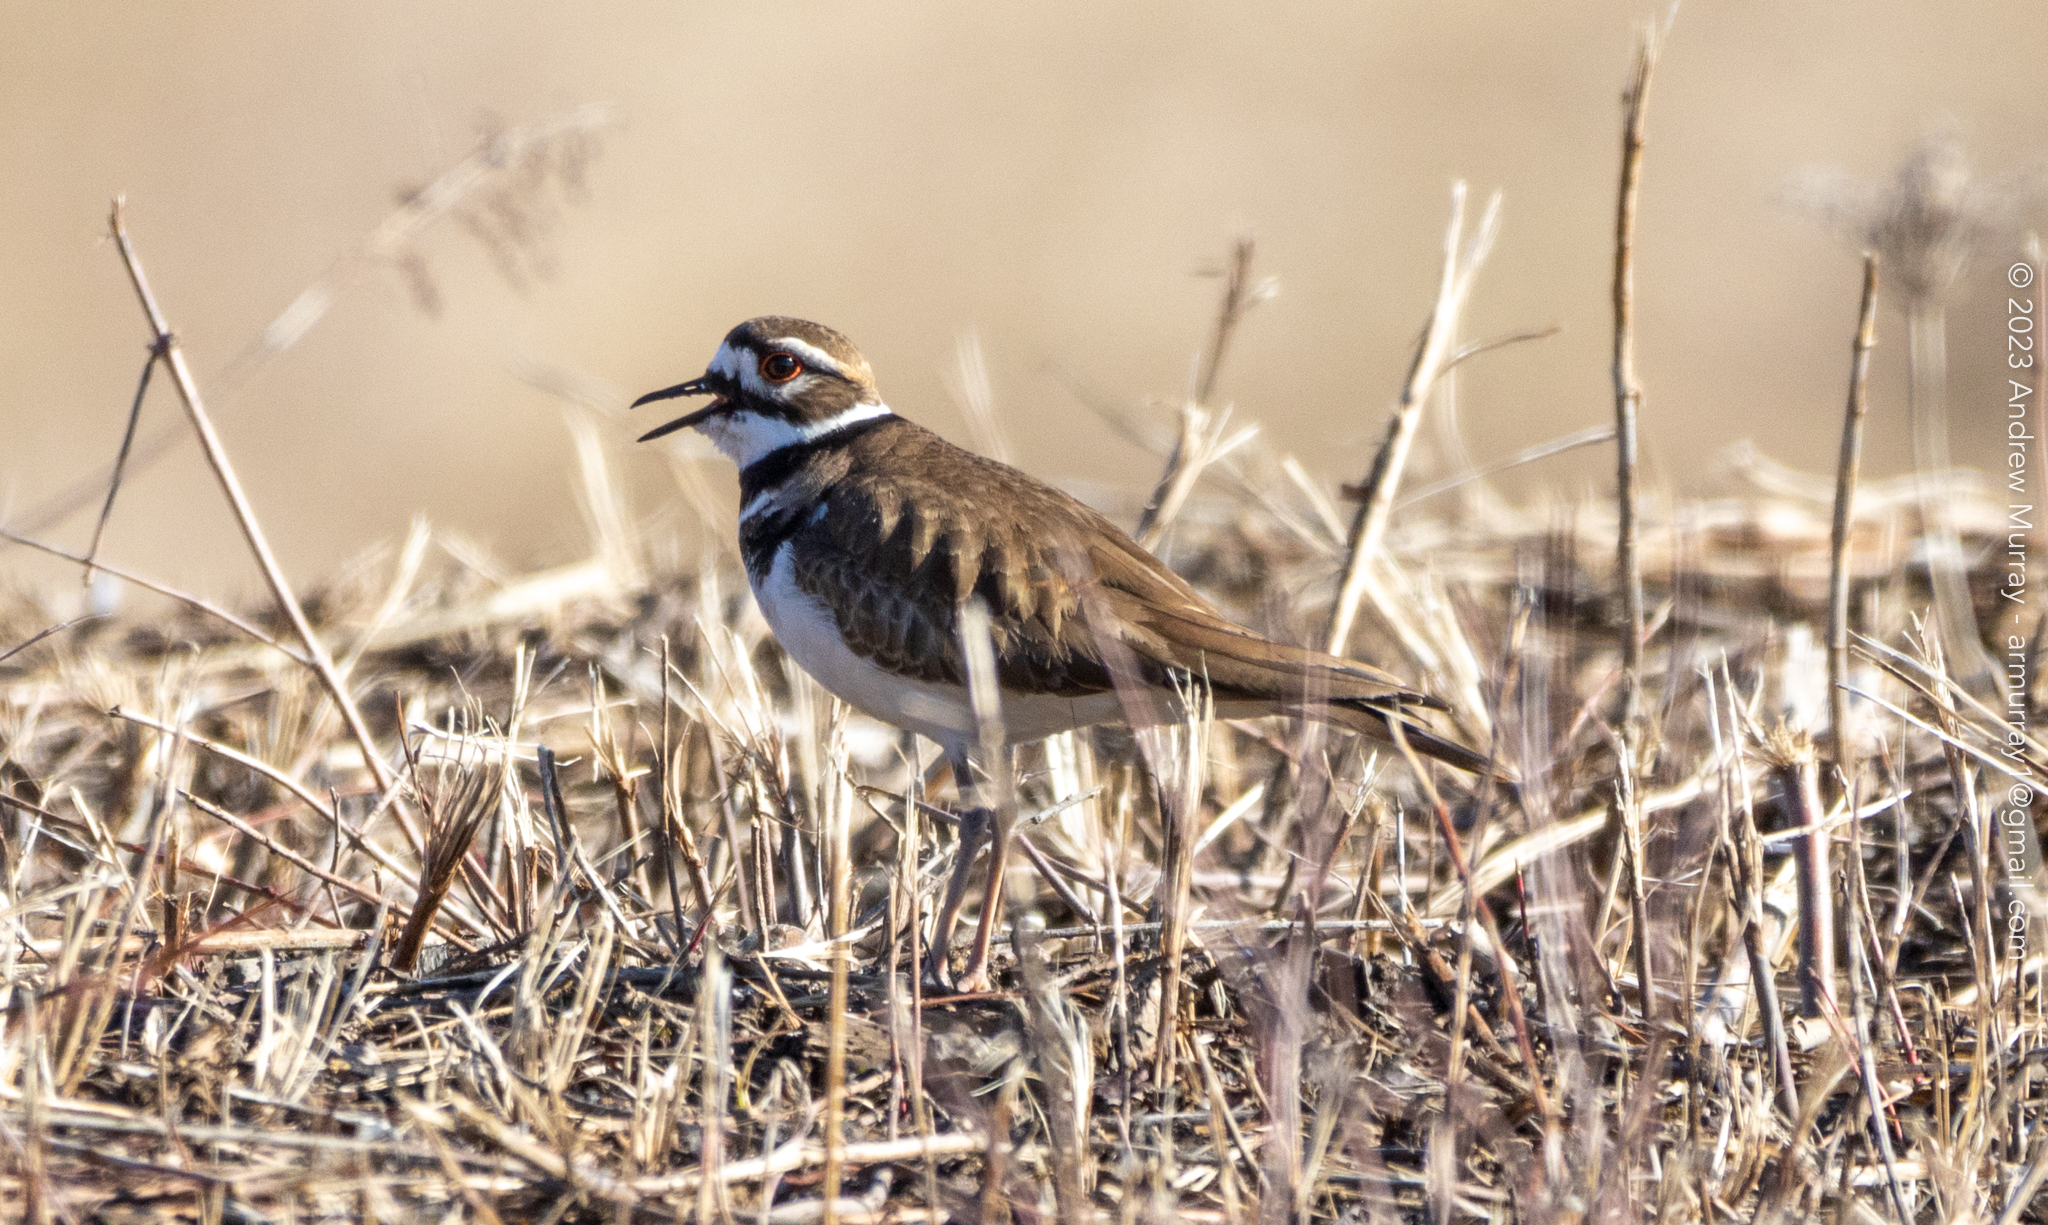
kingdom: Animalia
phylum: Chordata
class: Aves
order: Charadriiformes
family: Charadriidae
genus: Charadrius
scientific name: Charadrius vociferus
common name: Killdeer
